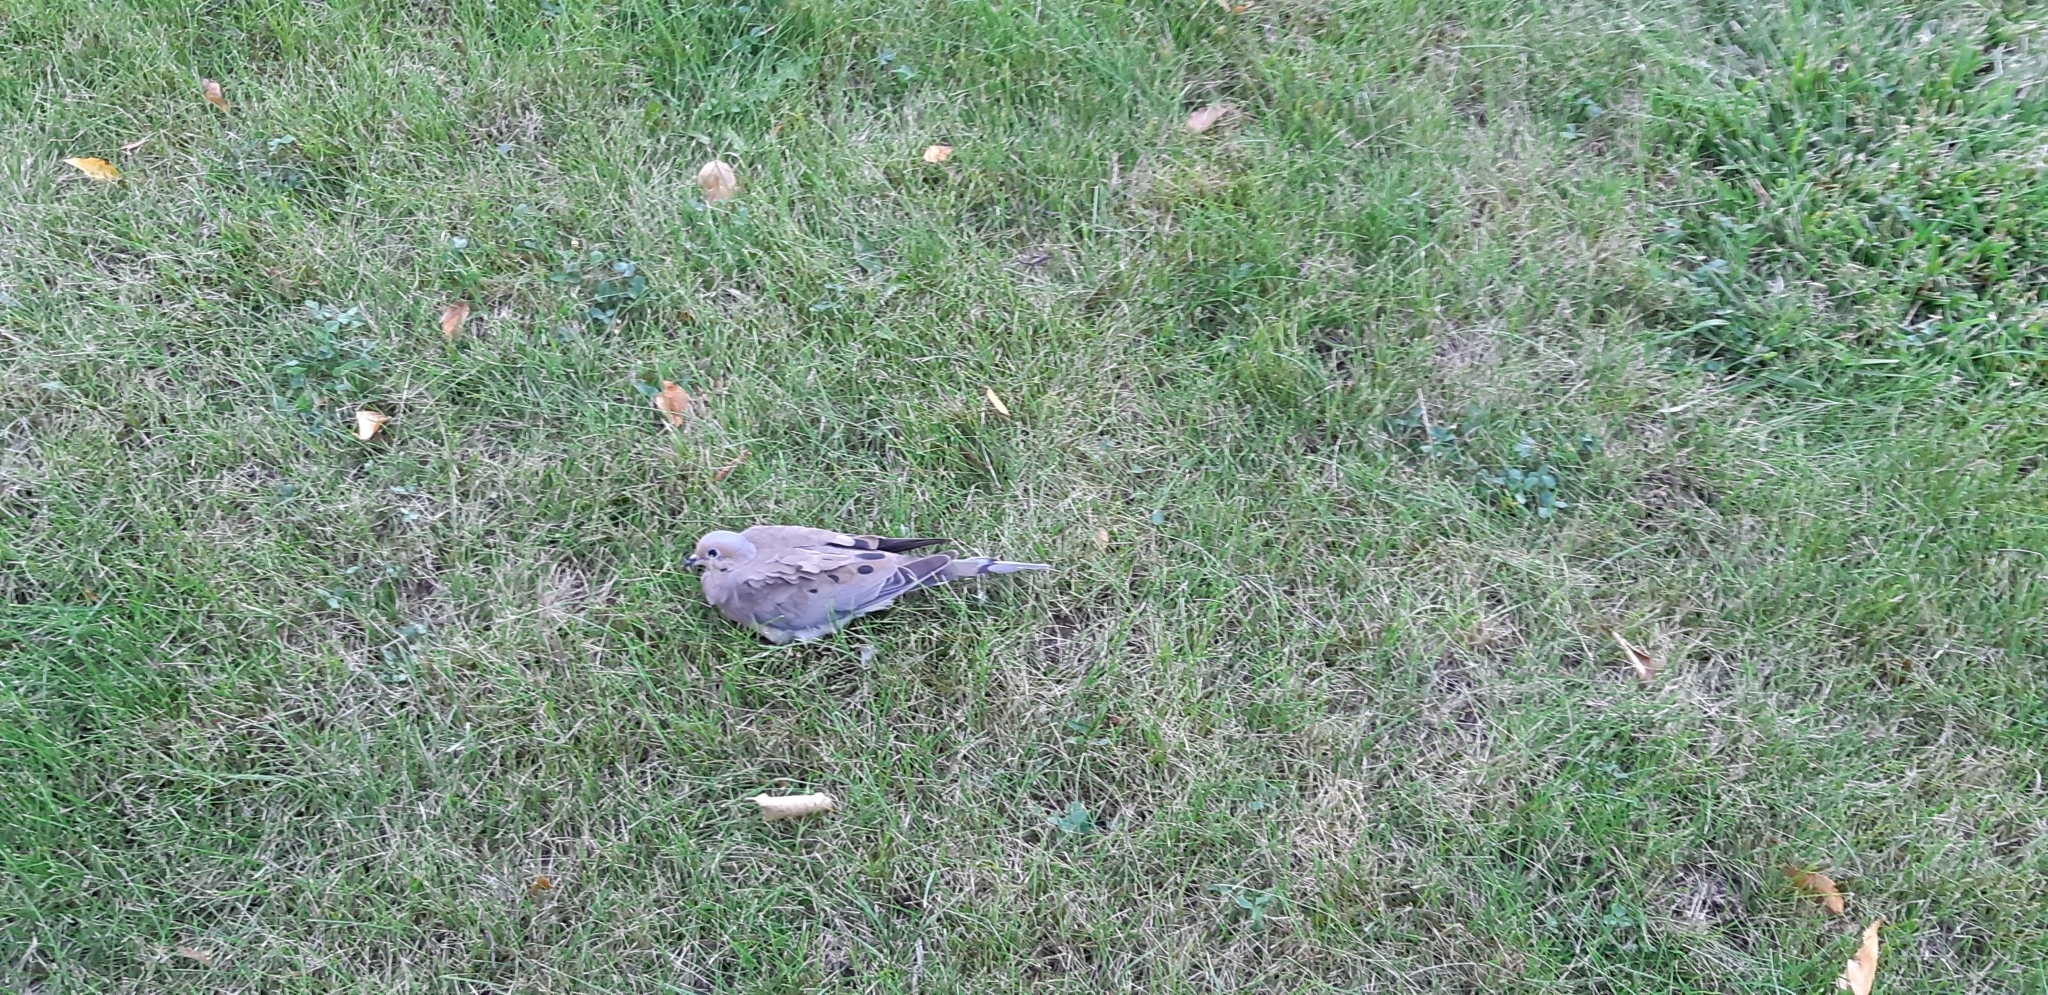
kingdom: Animalia
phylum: Chordata
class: Aves
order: Columbiformes
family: Columbidae
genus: Zenaida
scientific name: Zenaida macroura
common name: Mourning dove
